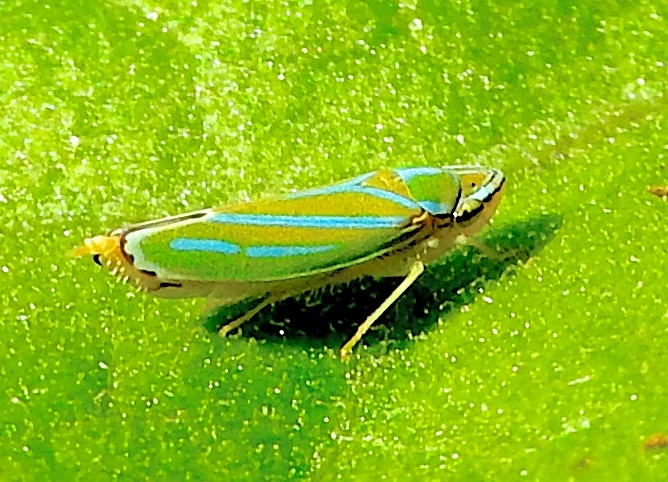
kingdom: Animalia
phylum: Arthropoda
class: Insecta
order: Hemiptera
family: Cicadellidae
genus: Graphocephala
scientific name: Graphocephala
